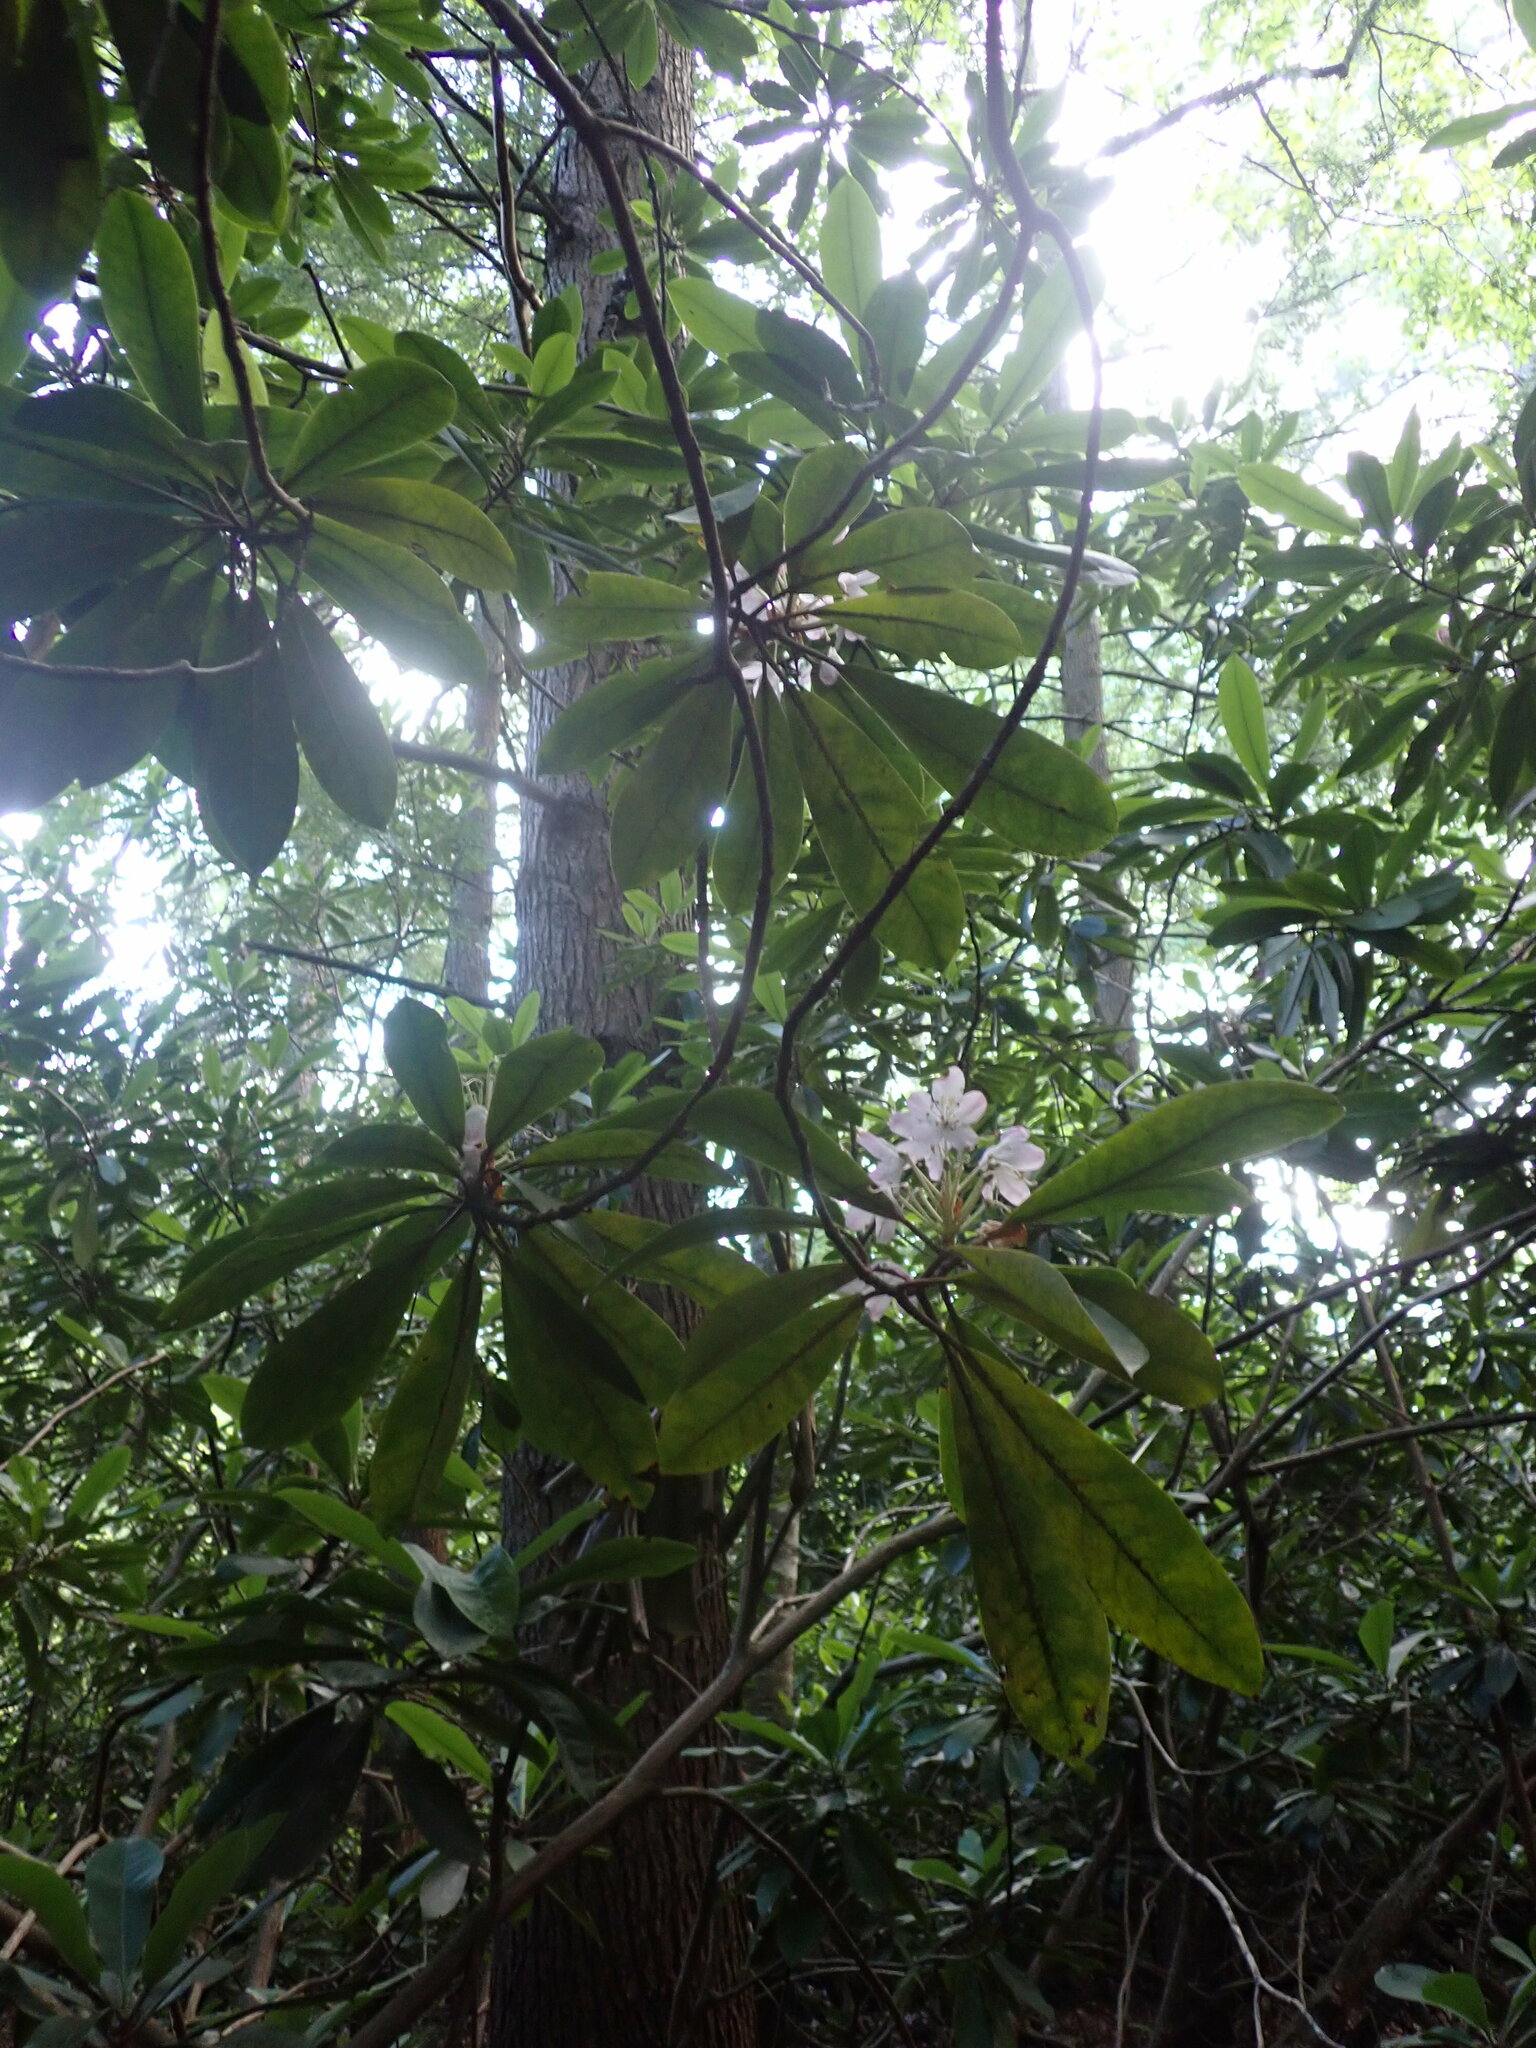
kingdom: Plantae
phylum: Tracheophyta
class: Magnoliopsida
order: Ericales
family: Ericaceae
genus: Rhododendron
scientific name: Rhododendron maximum
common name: Great rhododendron
